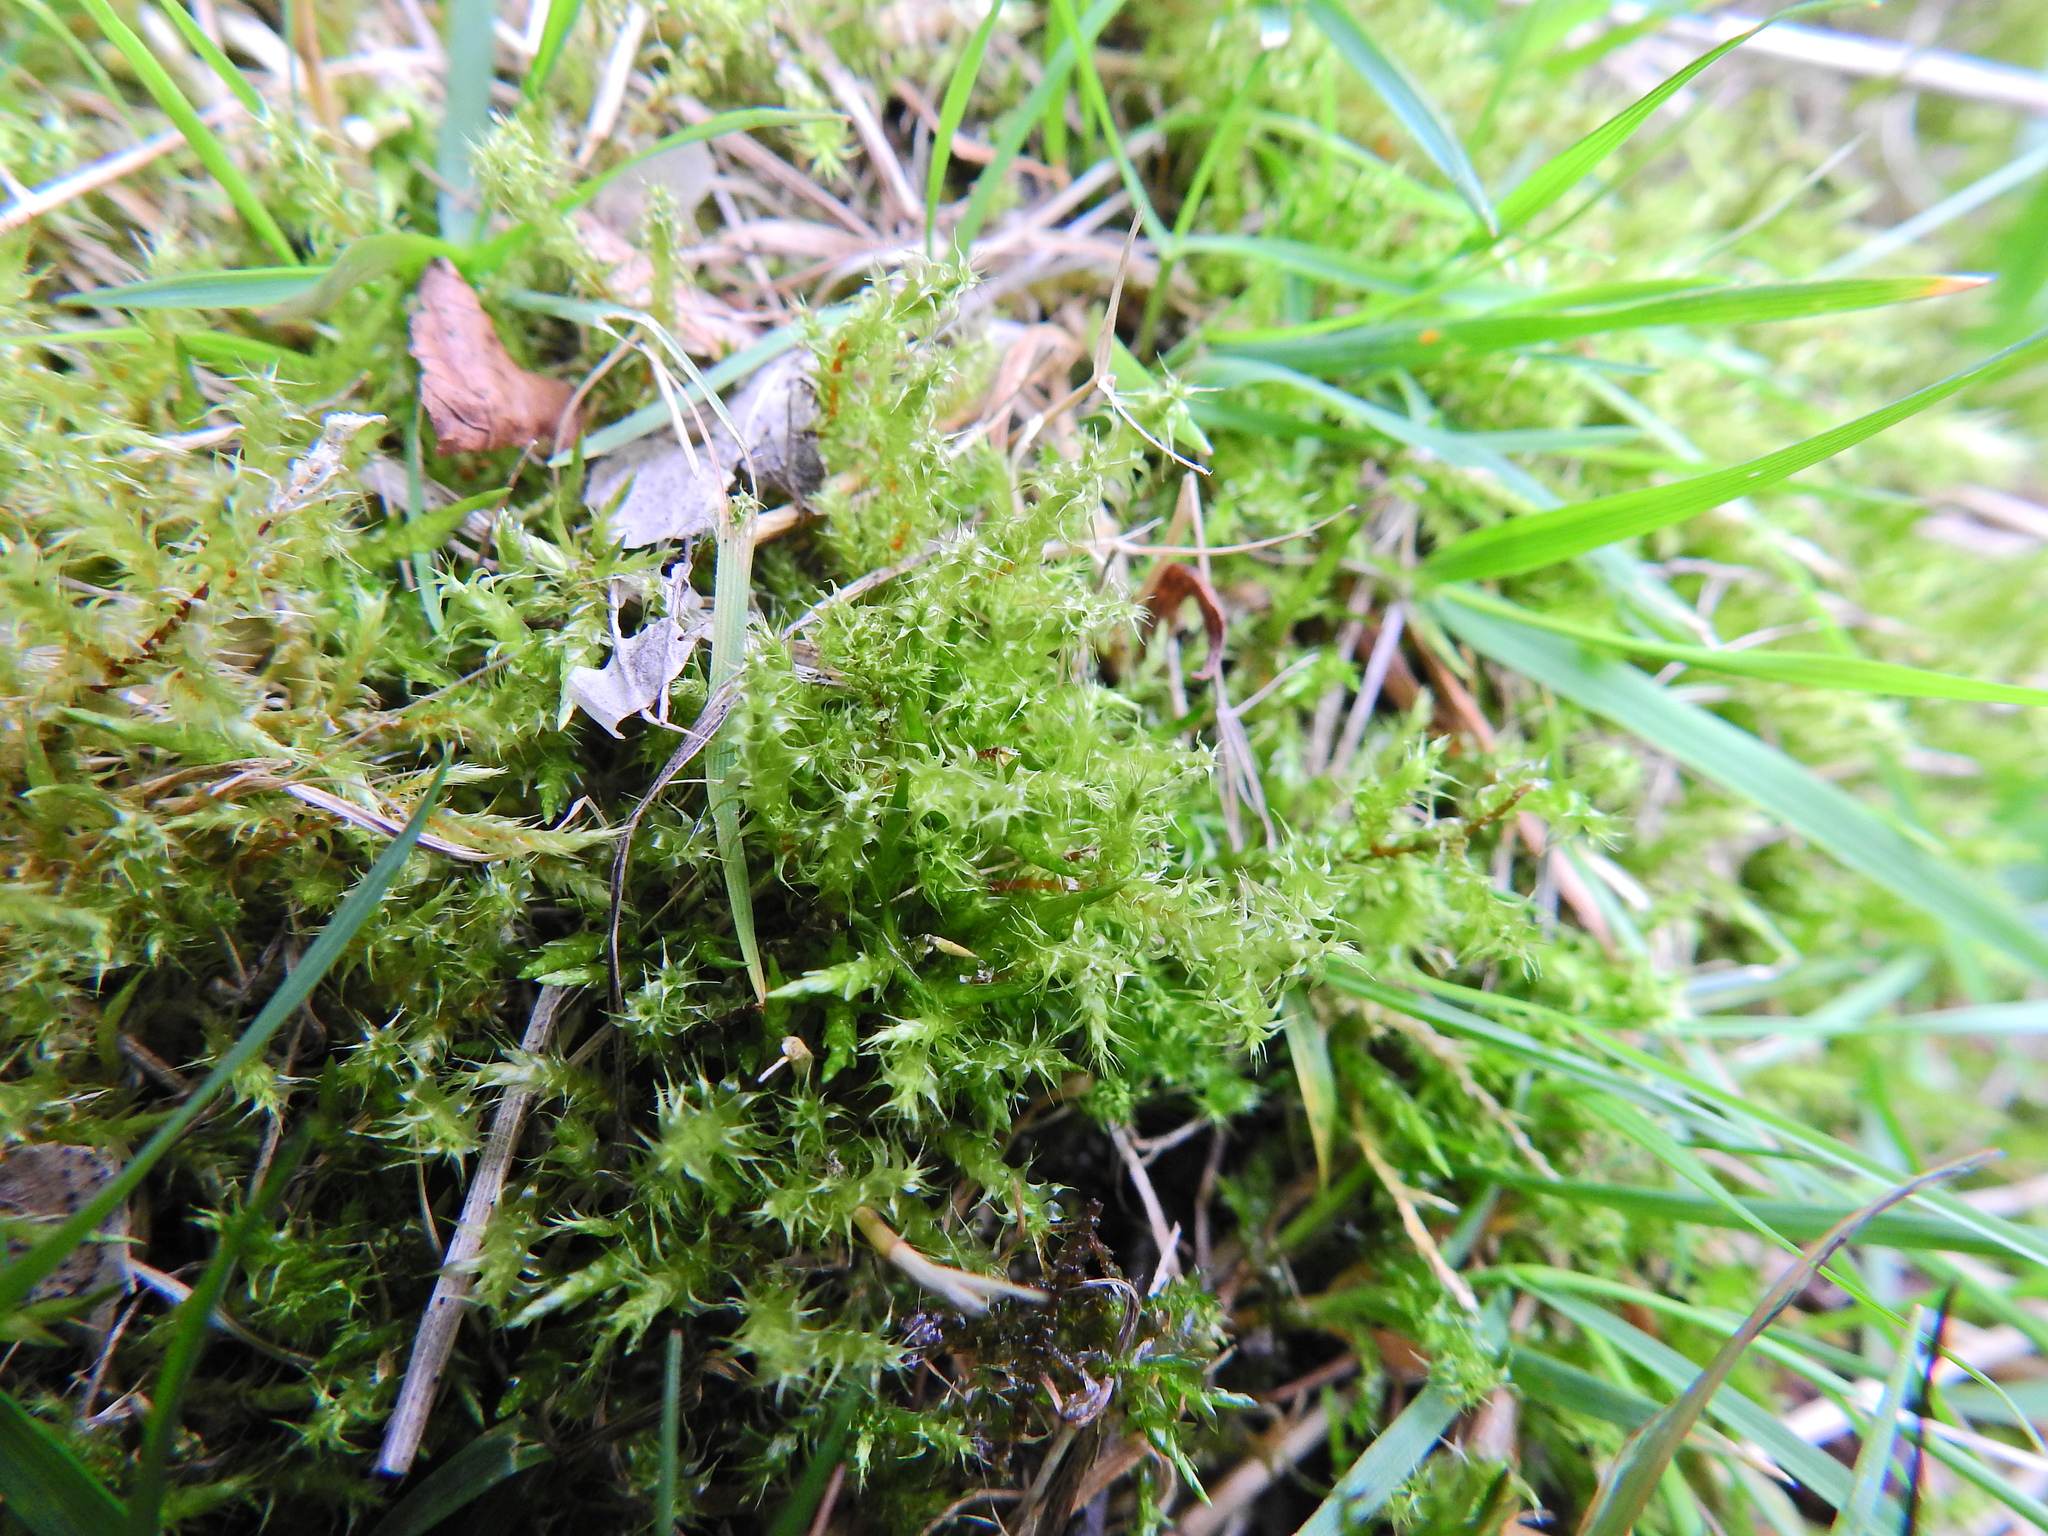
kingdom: Plantae
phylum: Bryophyta
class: Bryopsida
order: Hypnales
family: Hylocomiaceae
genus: Rhytidiadelphus
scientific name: Rhytidiadelphus squarrosus
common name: Springy turf-moss
